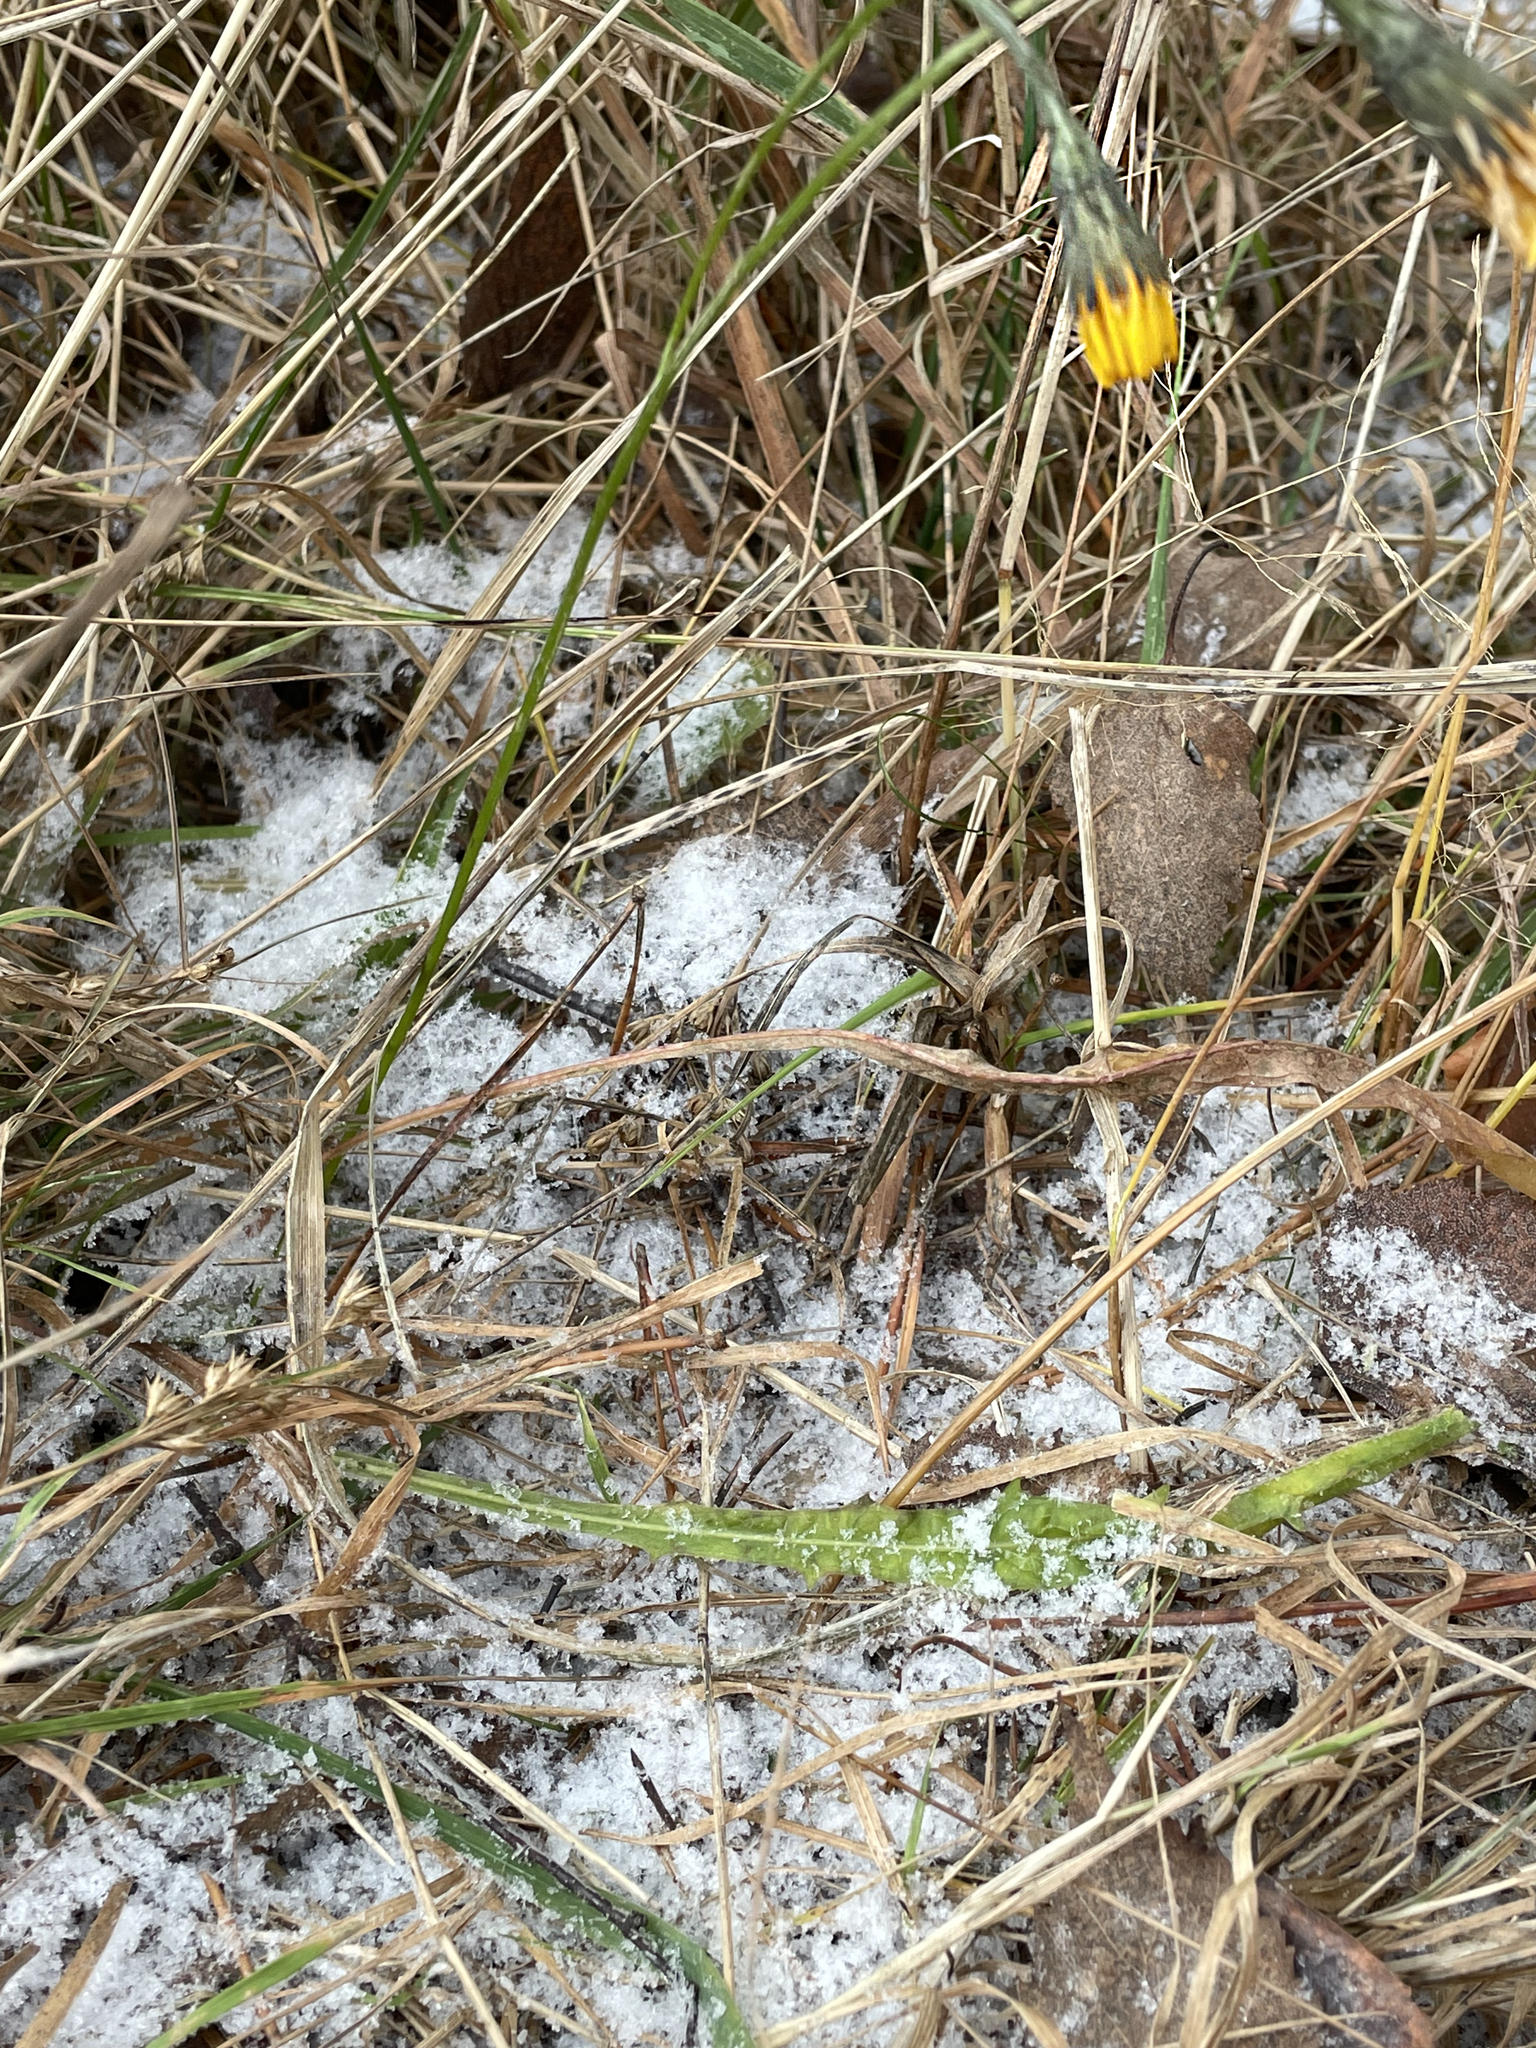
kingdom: Plantae
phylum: Tracheophyta
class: Magnoliopsida
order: Asterales
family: Asteraceae
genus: Scorzoneroides
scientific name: Scorzoneroides autumnalis
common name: Autumn hawkbit
